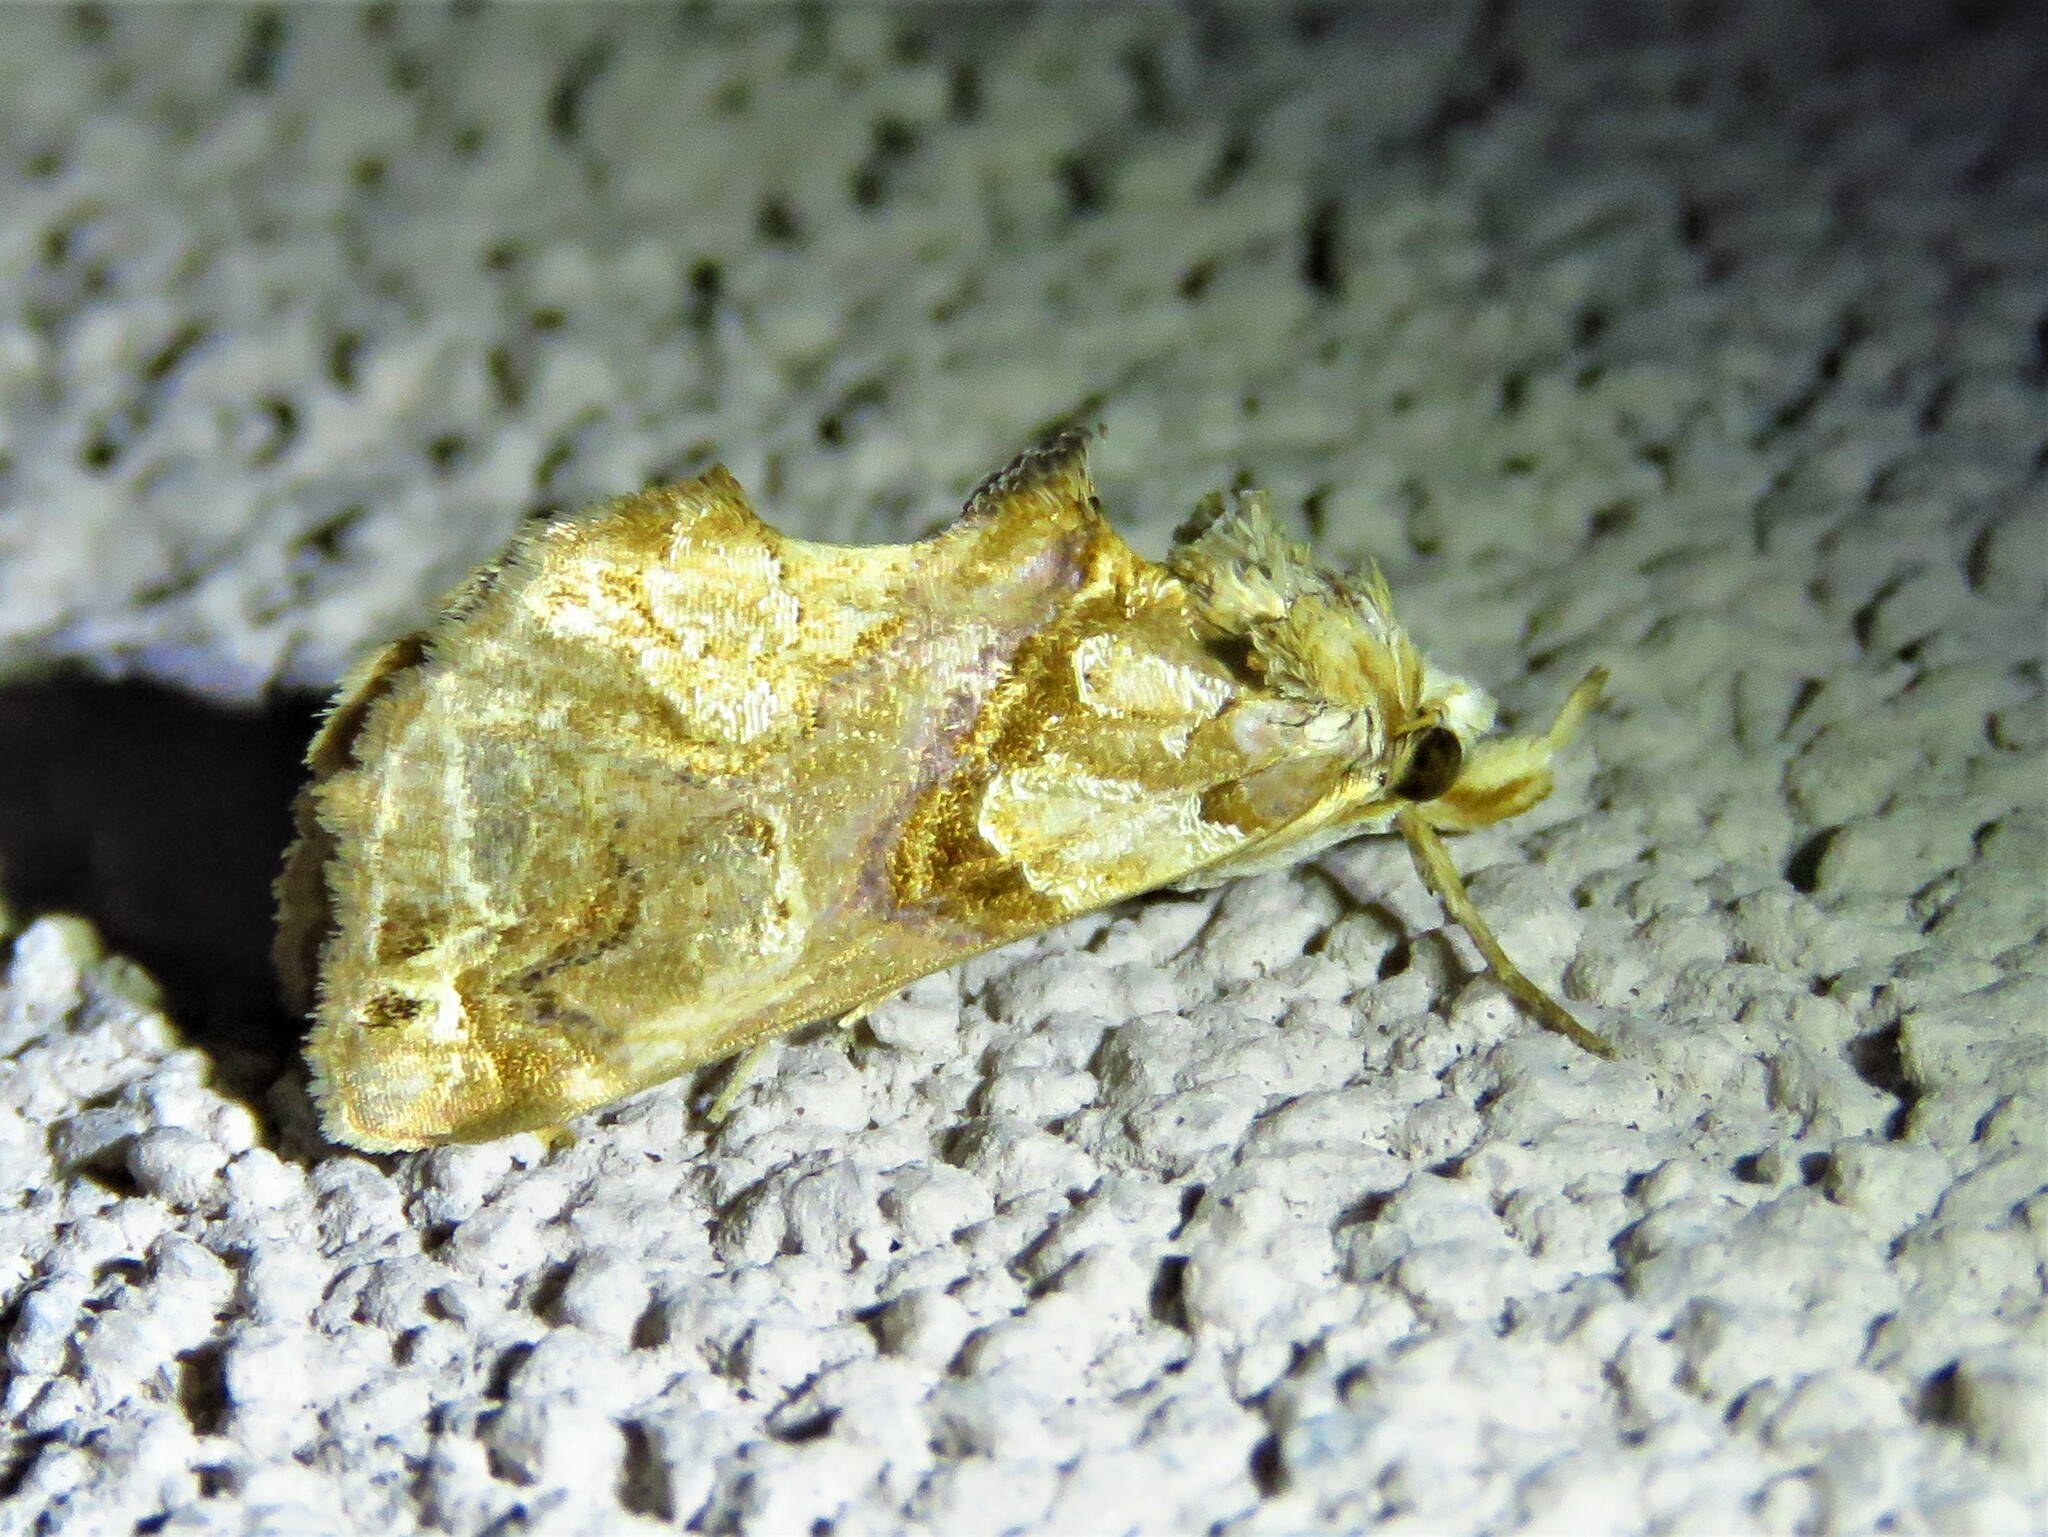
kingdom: Animalia
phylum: Arthropoda
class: Insecta
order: Lepidoptera
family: Erebidae
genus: Plusiodonta
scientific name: Plusiodonta compressipalpis
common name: Moonseed moth
